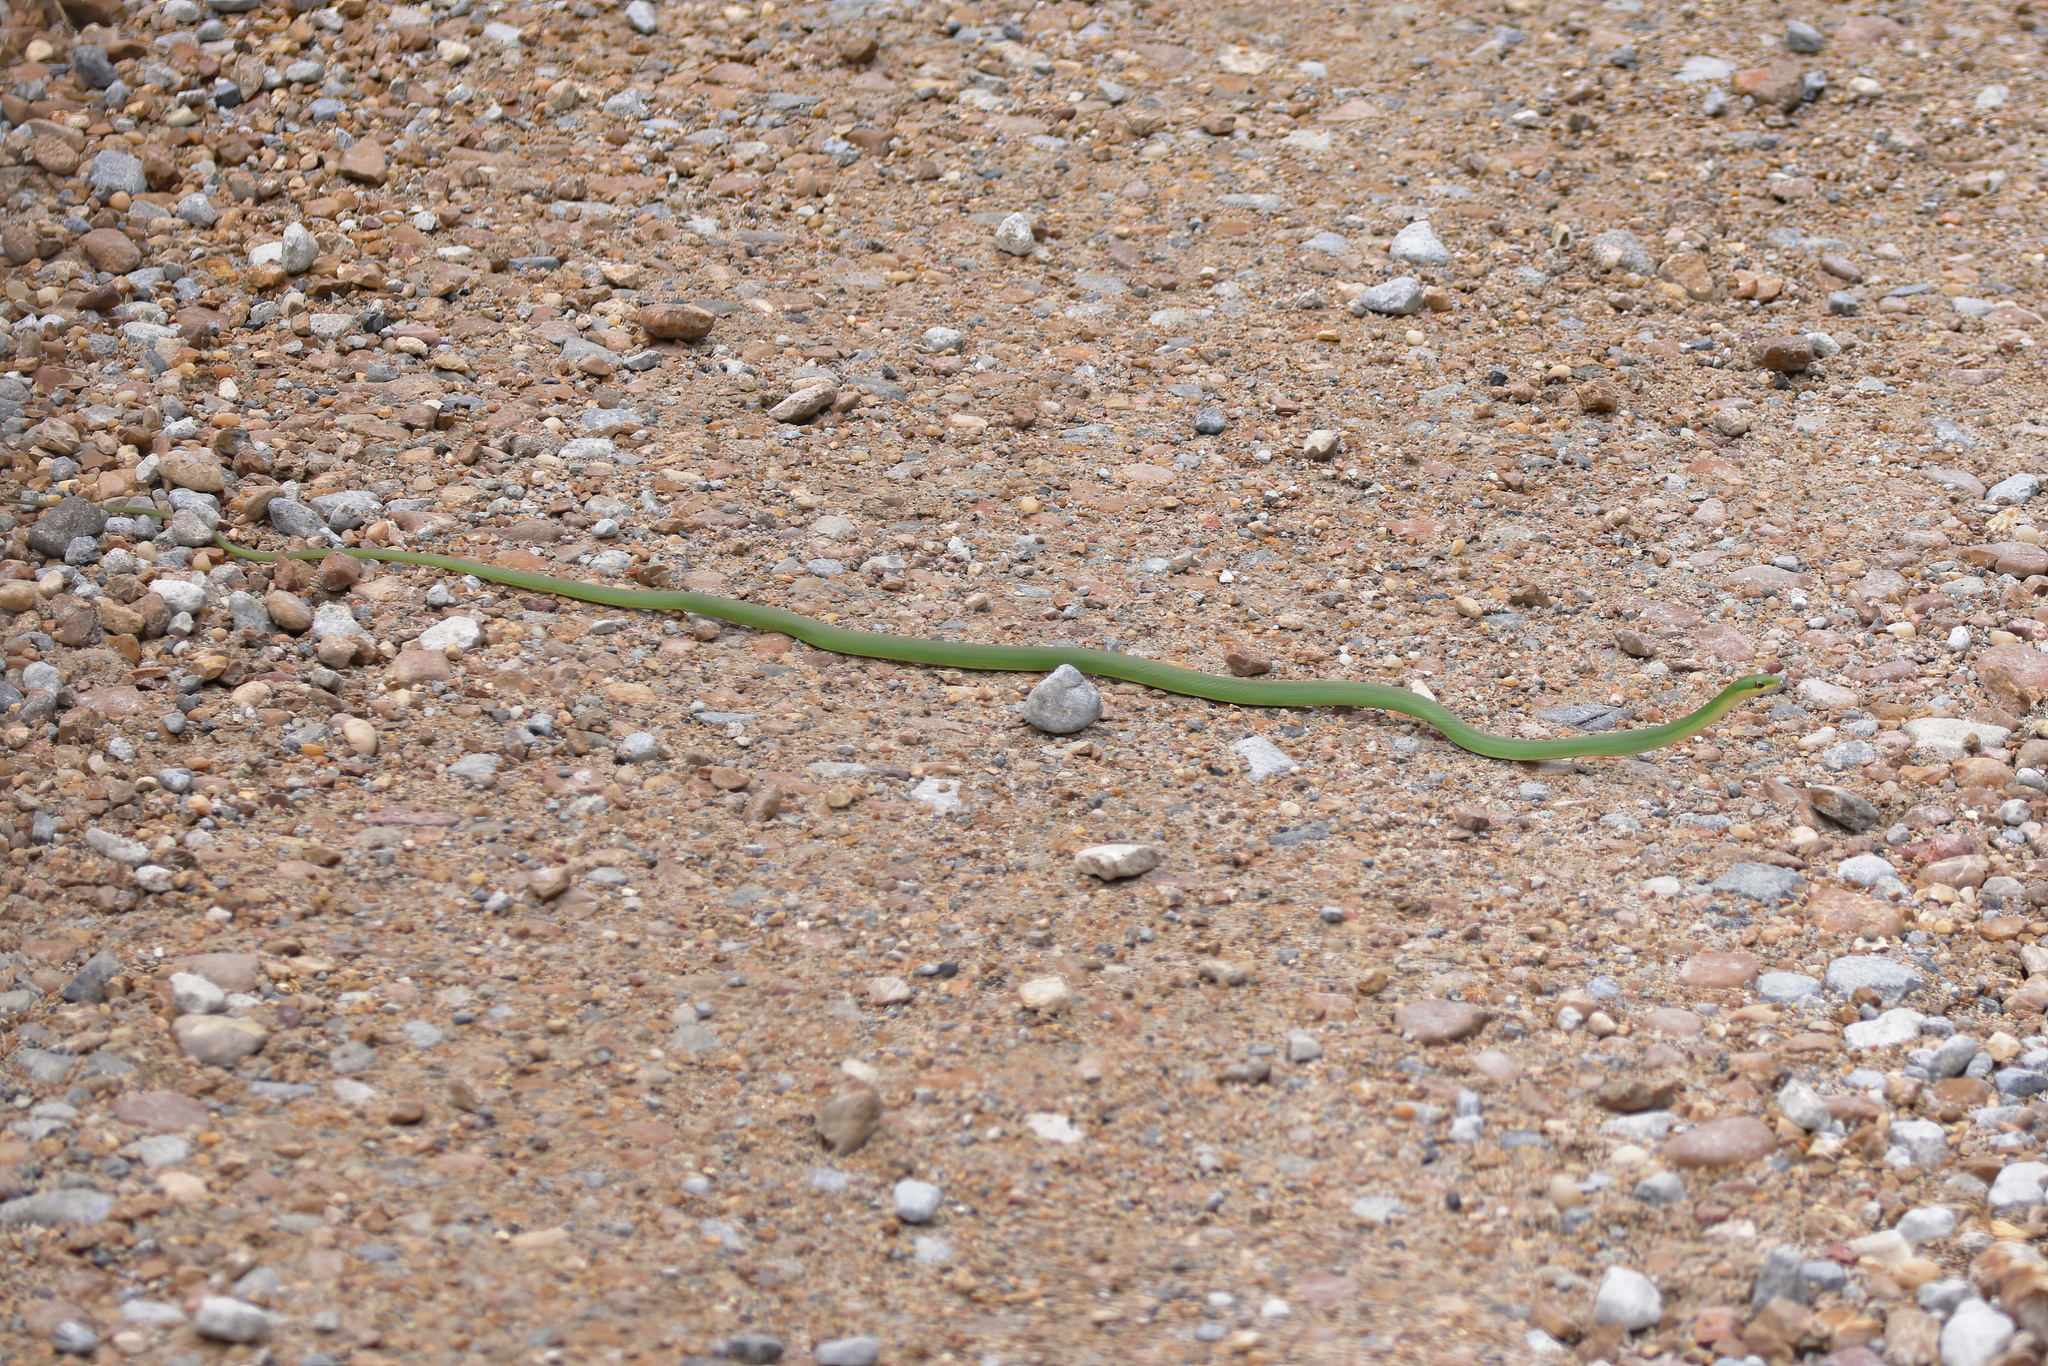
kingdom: Animalia
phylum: Chordata
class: Squamata
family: Colubridae
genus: Opheodrys
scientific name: Opheodrys aestivus
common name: Rough greensnake
